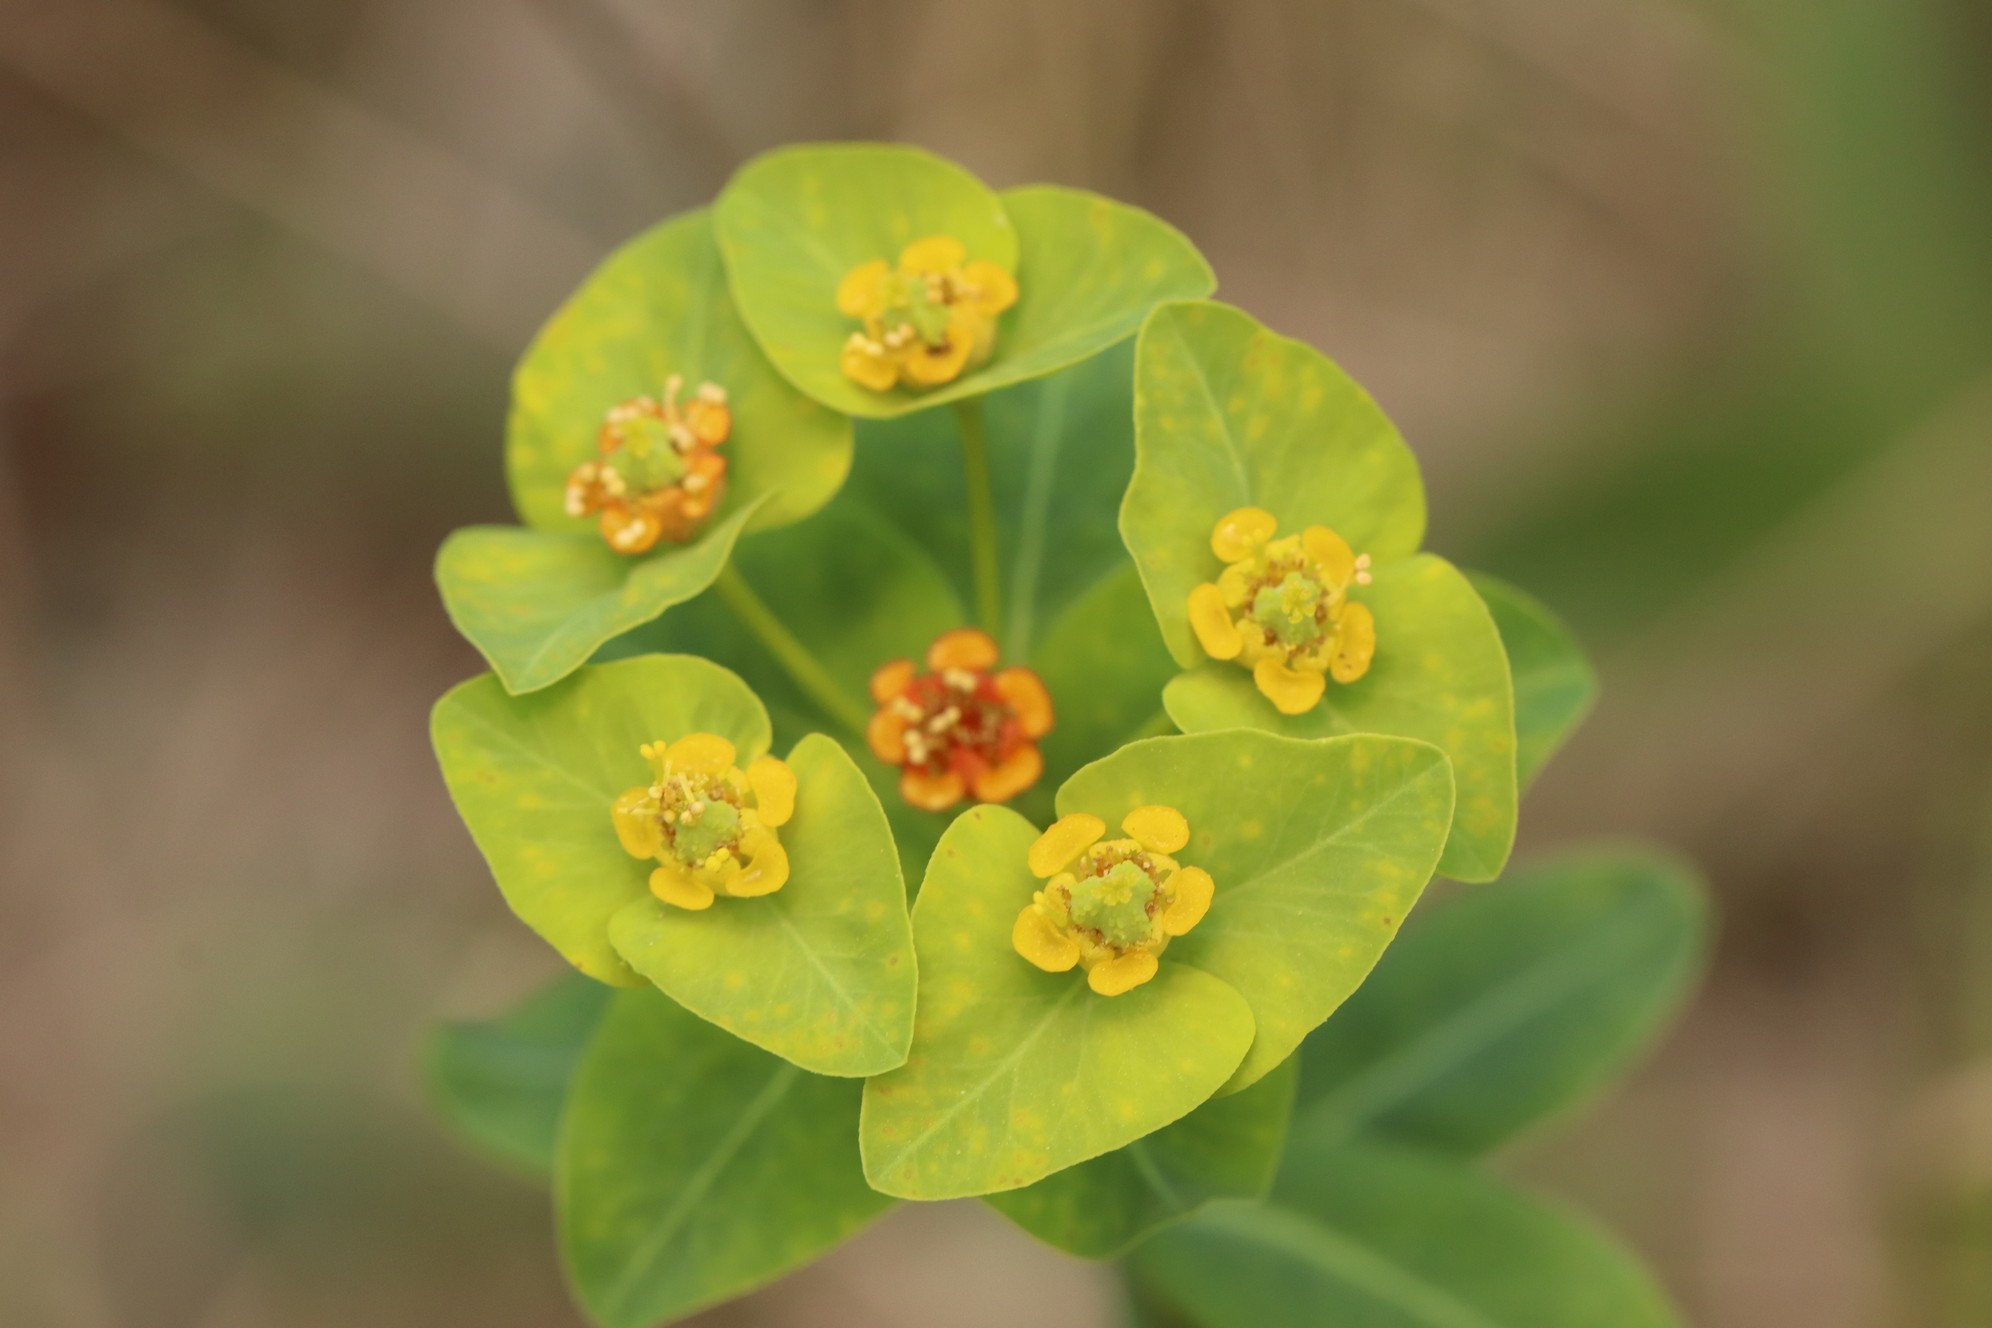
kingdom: Plantae
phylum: Tracheophyta
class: Magnoliopsida
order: Malpighiales
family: Euphorbiaceae
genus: Euphorbia
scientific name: Euphorbia altaica
